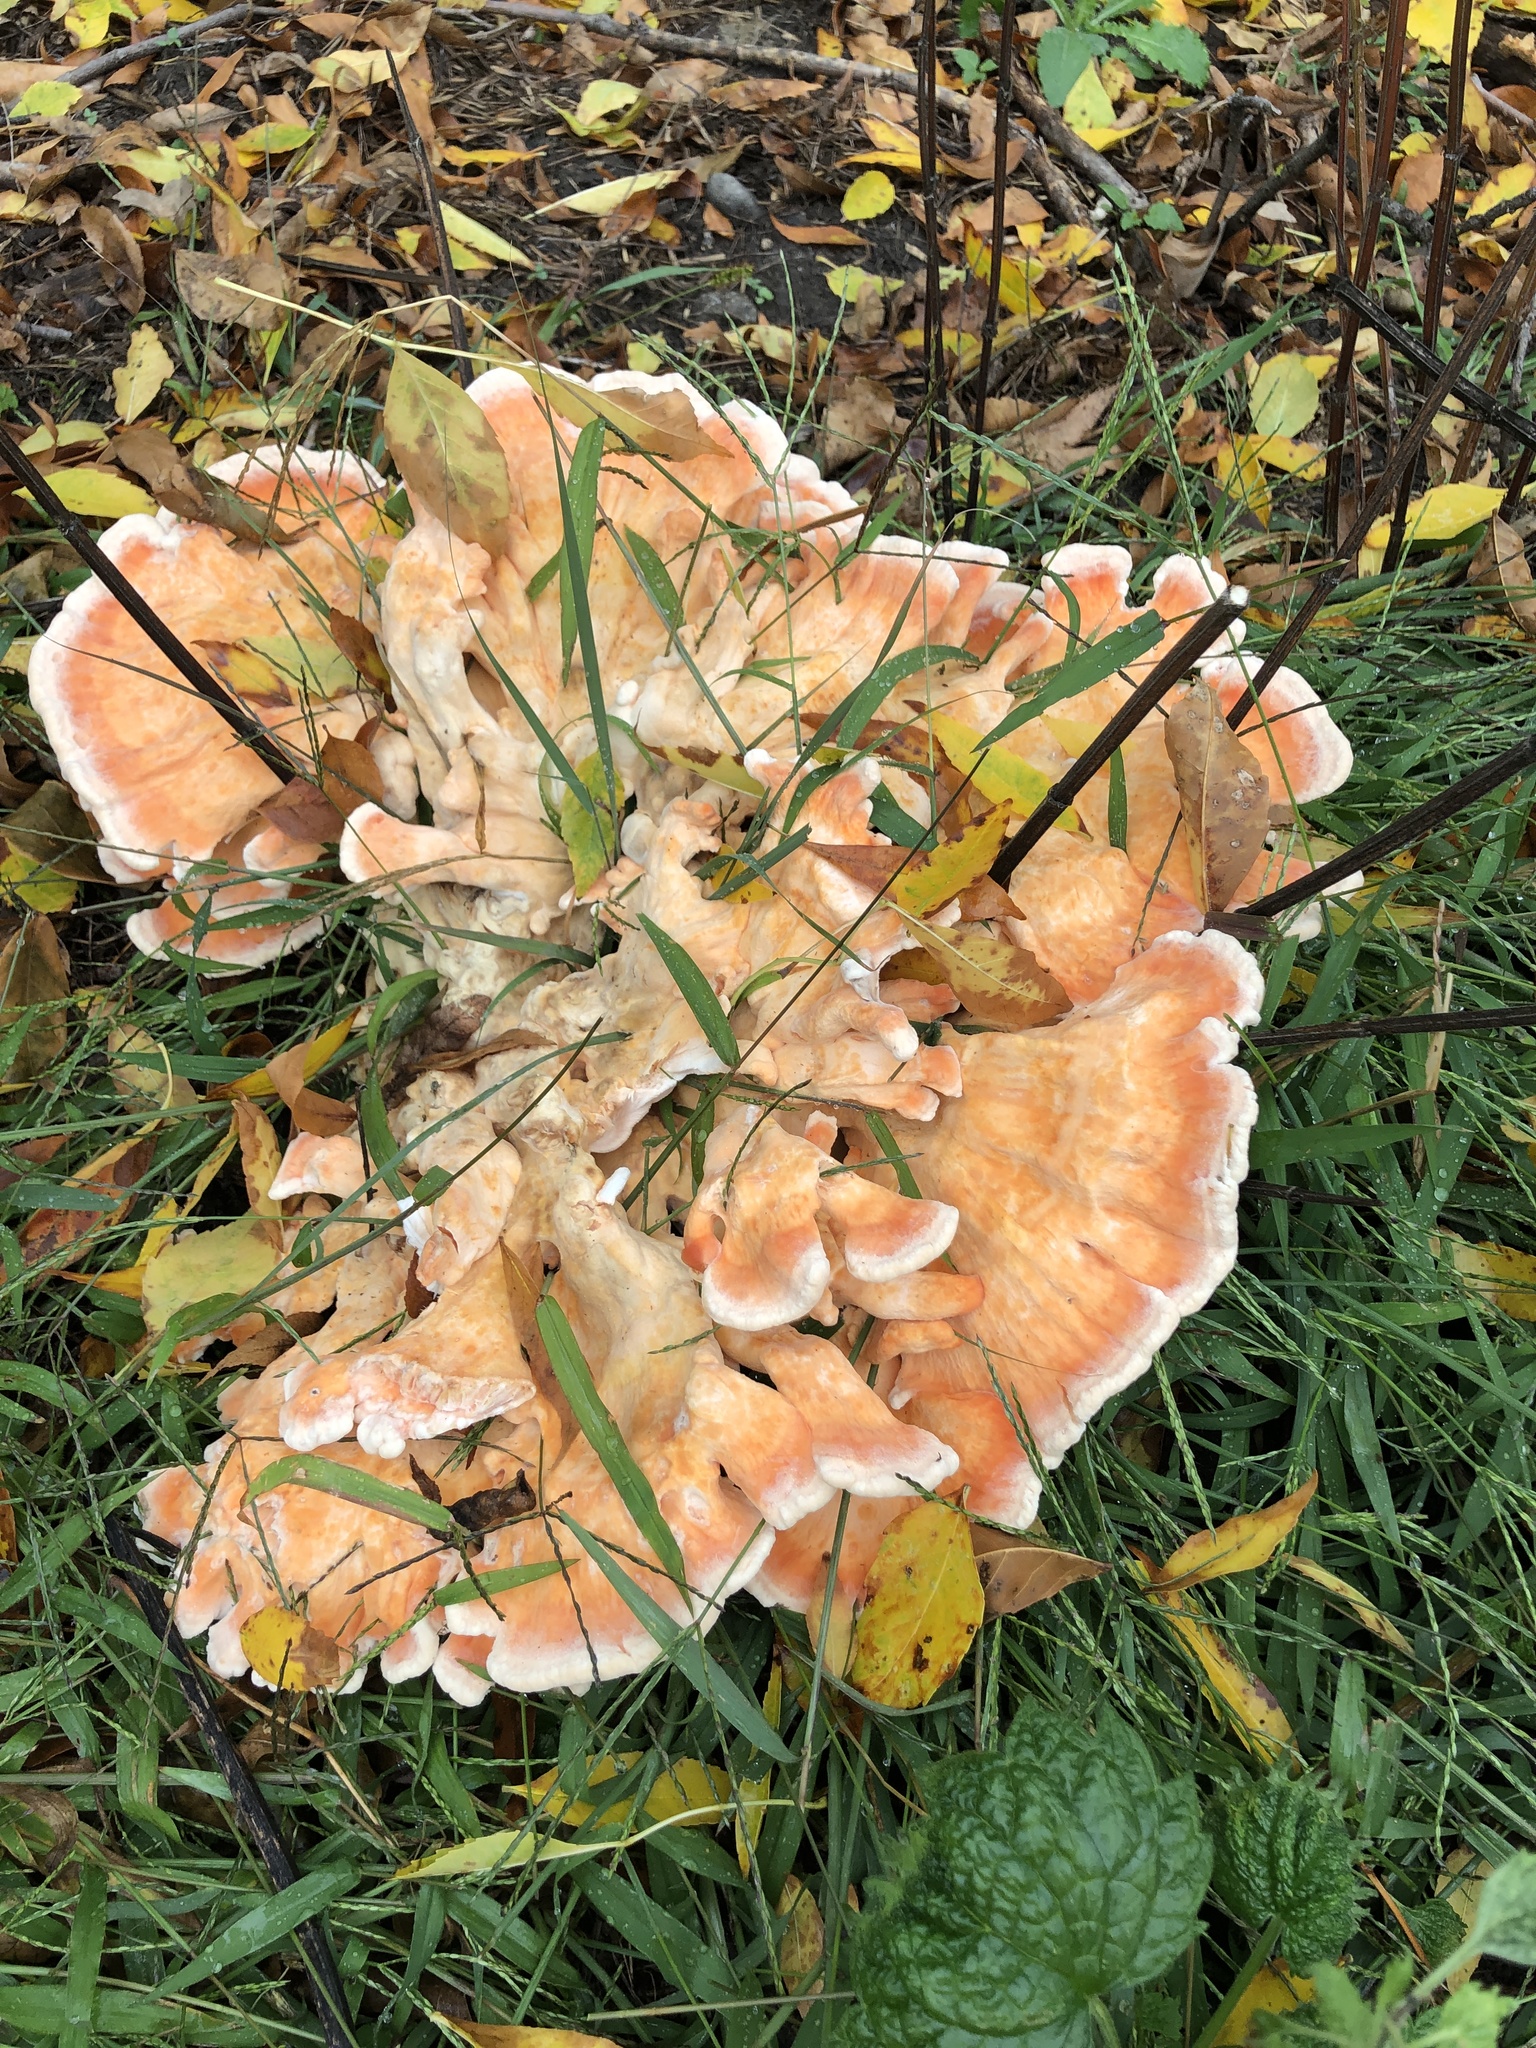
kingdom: Fungi
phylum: Basidiomycota
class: Agaricomycetes
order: Polyporales
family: Laetiporaceae
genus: Laetiporus
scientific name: Laetiporus sulphureus
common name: Chicken of the woods
